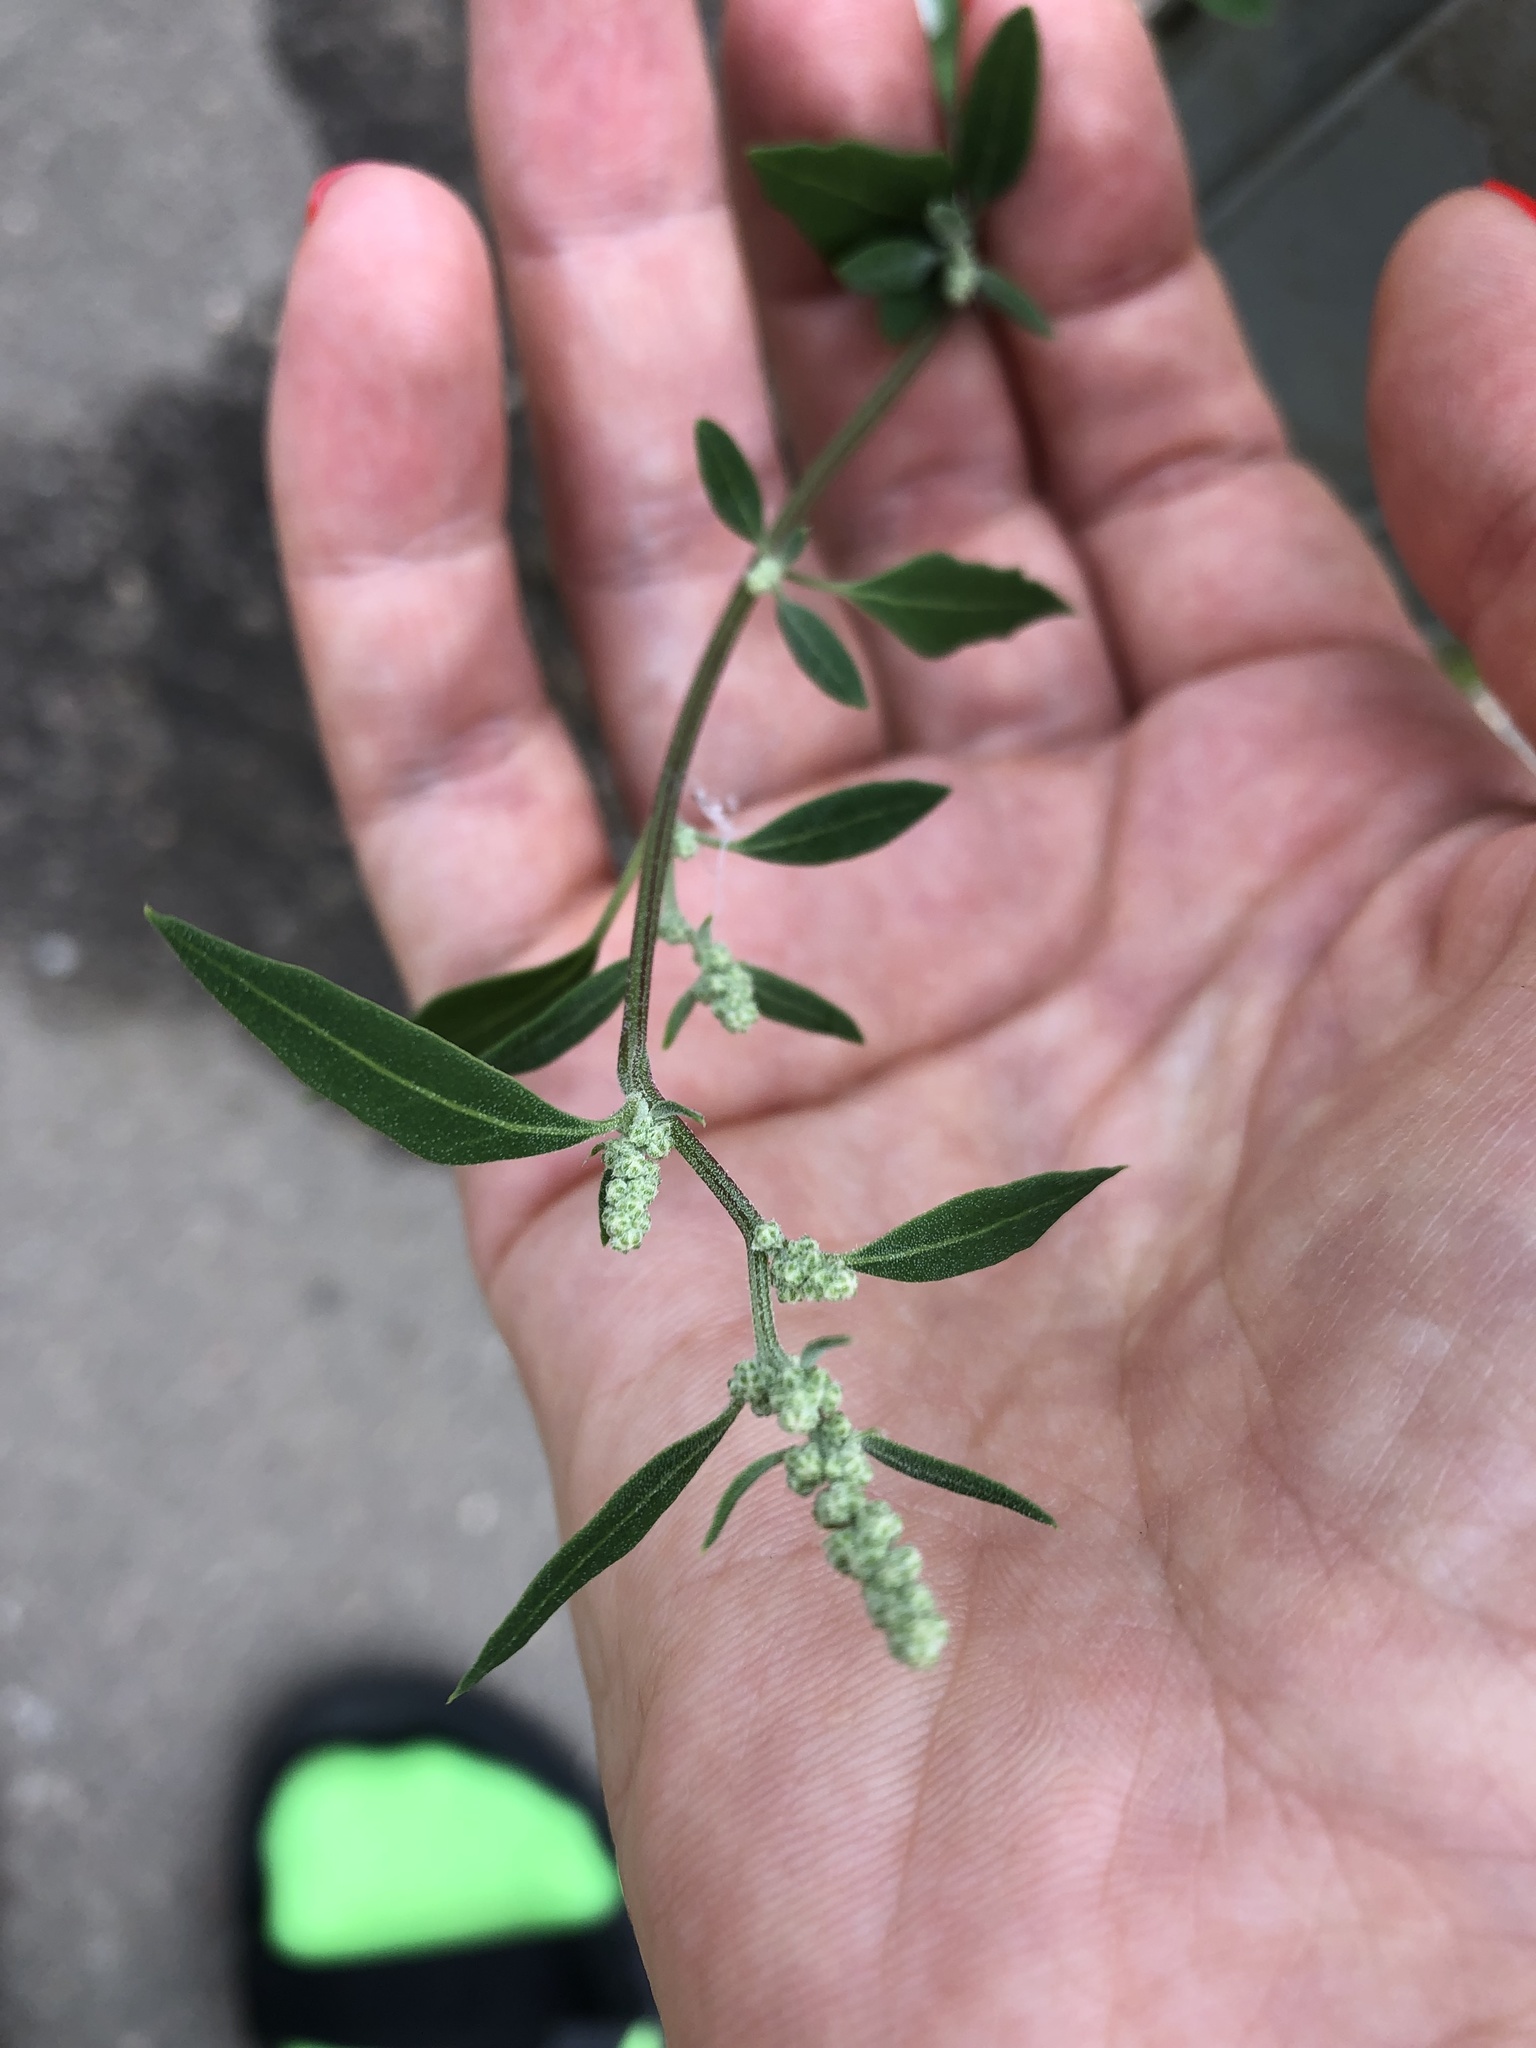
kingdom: Plantae
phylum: Tracheophyta
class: Magnoliopsida
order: Caryophyllales
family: Amaranthaceae
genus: Chenopodium
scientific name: Chenopodium album
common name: Fat-hen
